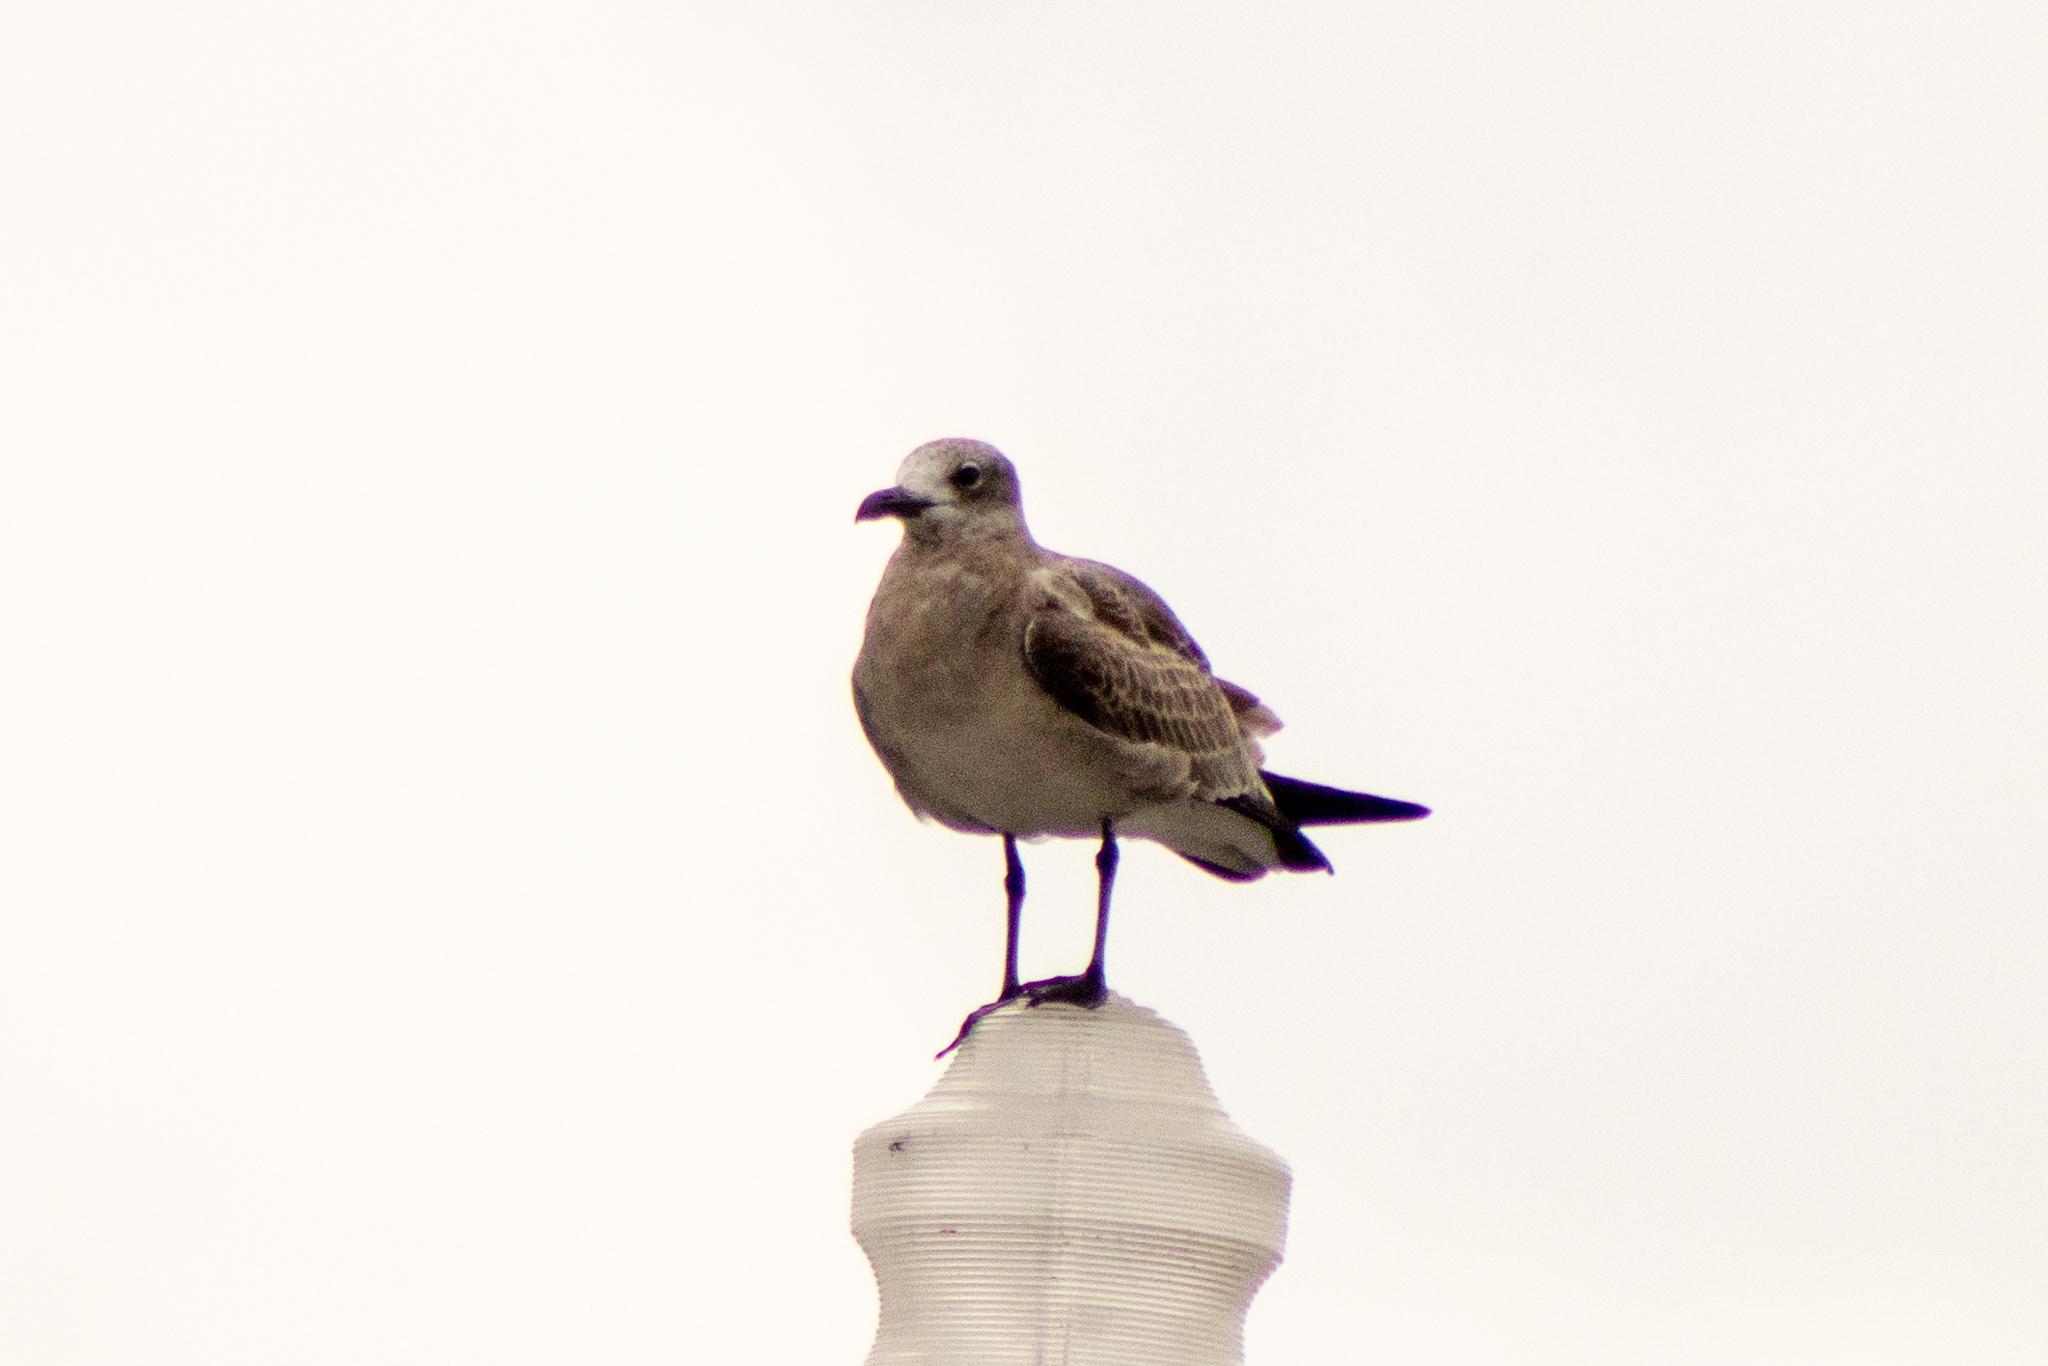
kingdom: Animalia
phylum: Chordata
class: Aves
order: Charadriiformes
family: Laridae
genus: Leucophaeus
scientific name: Leucophaeus atricilla
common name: Laughing gull
